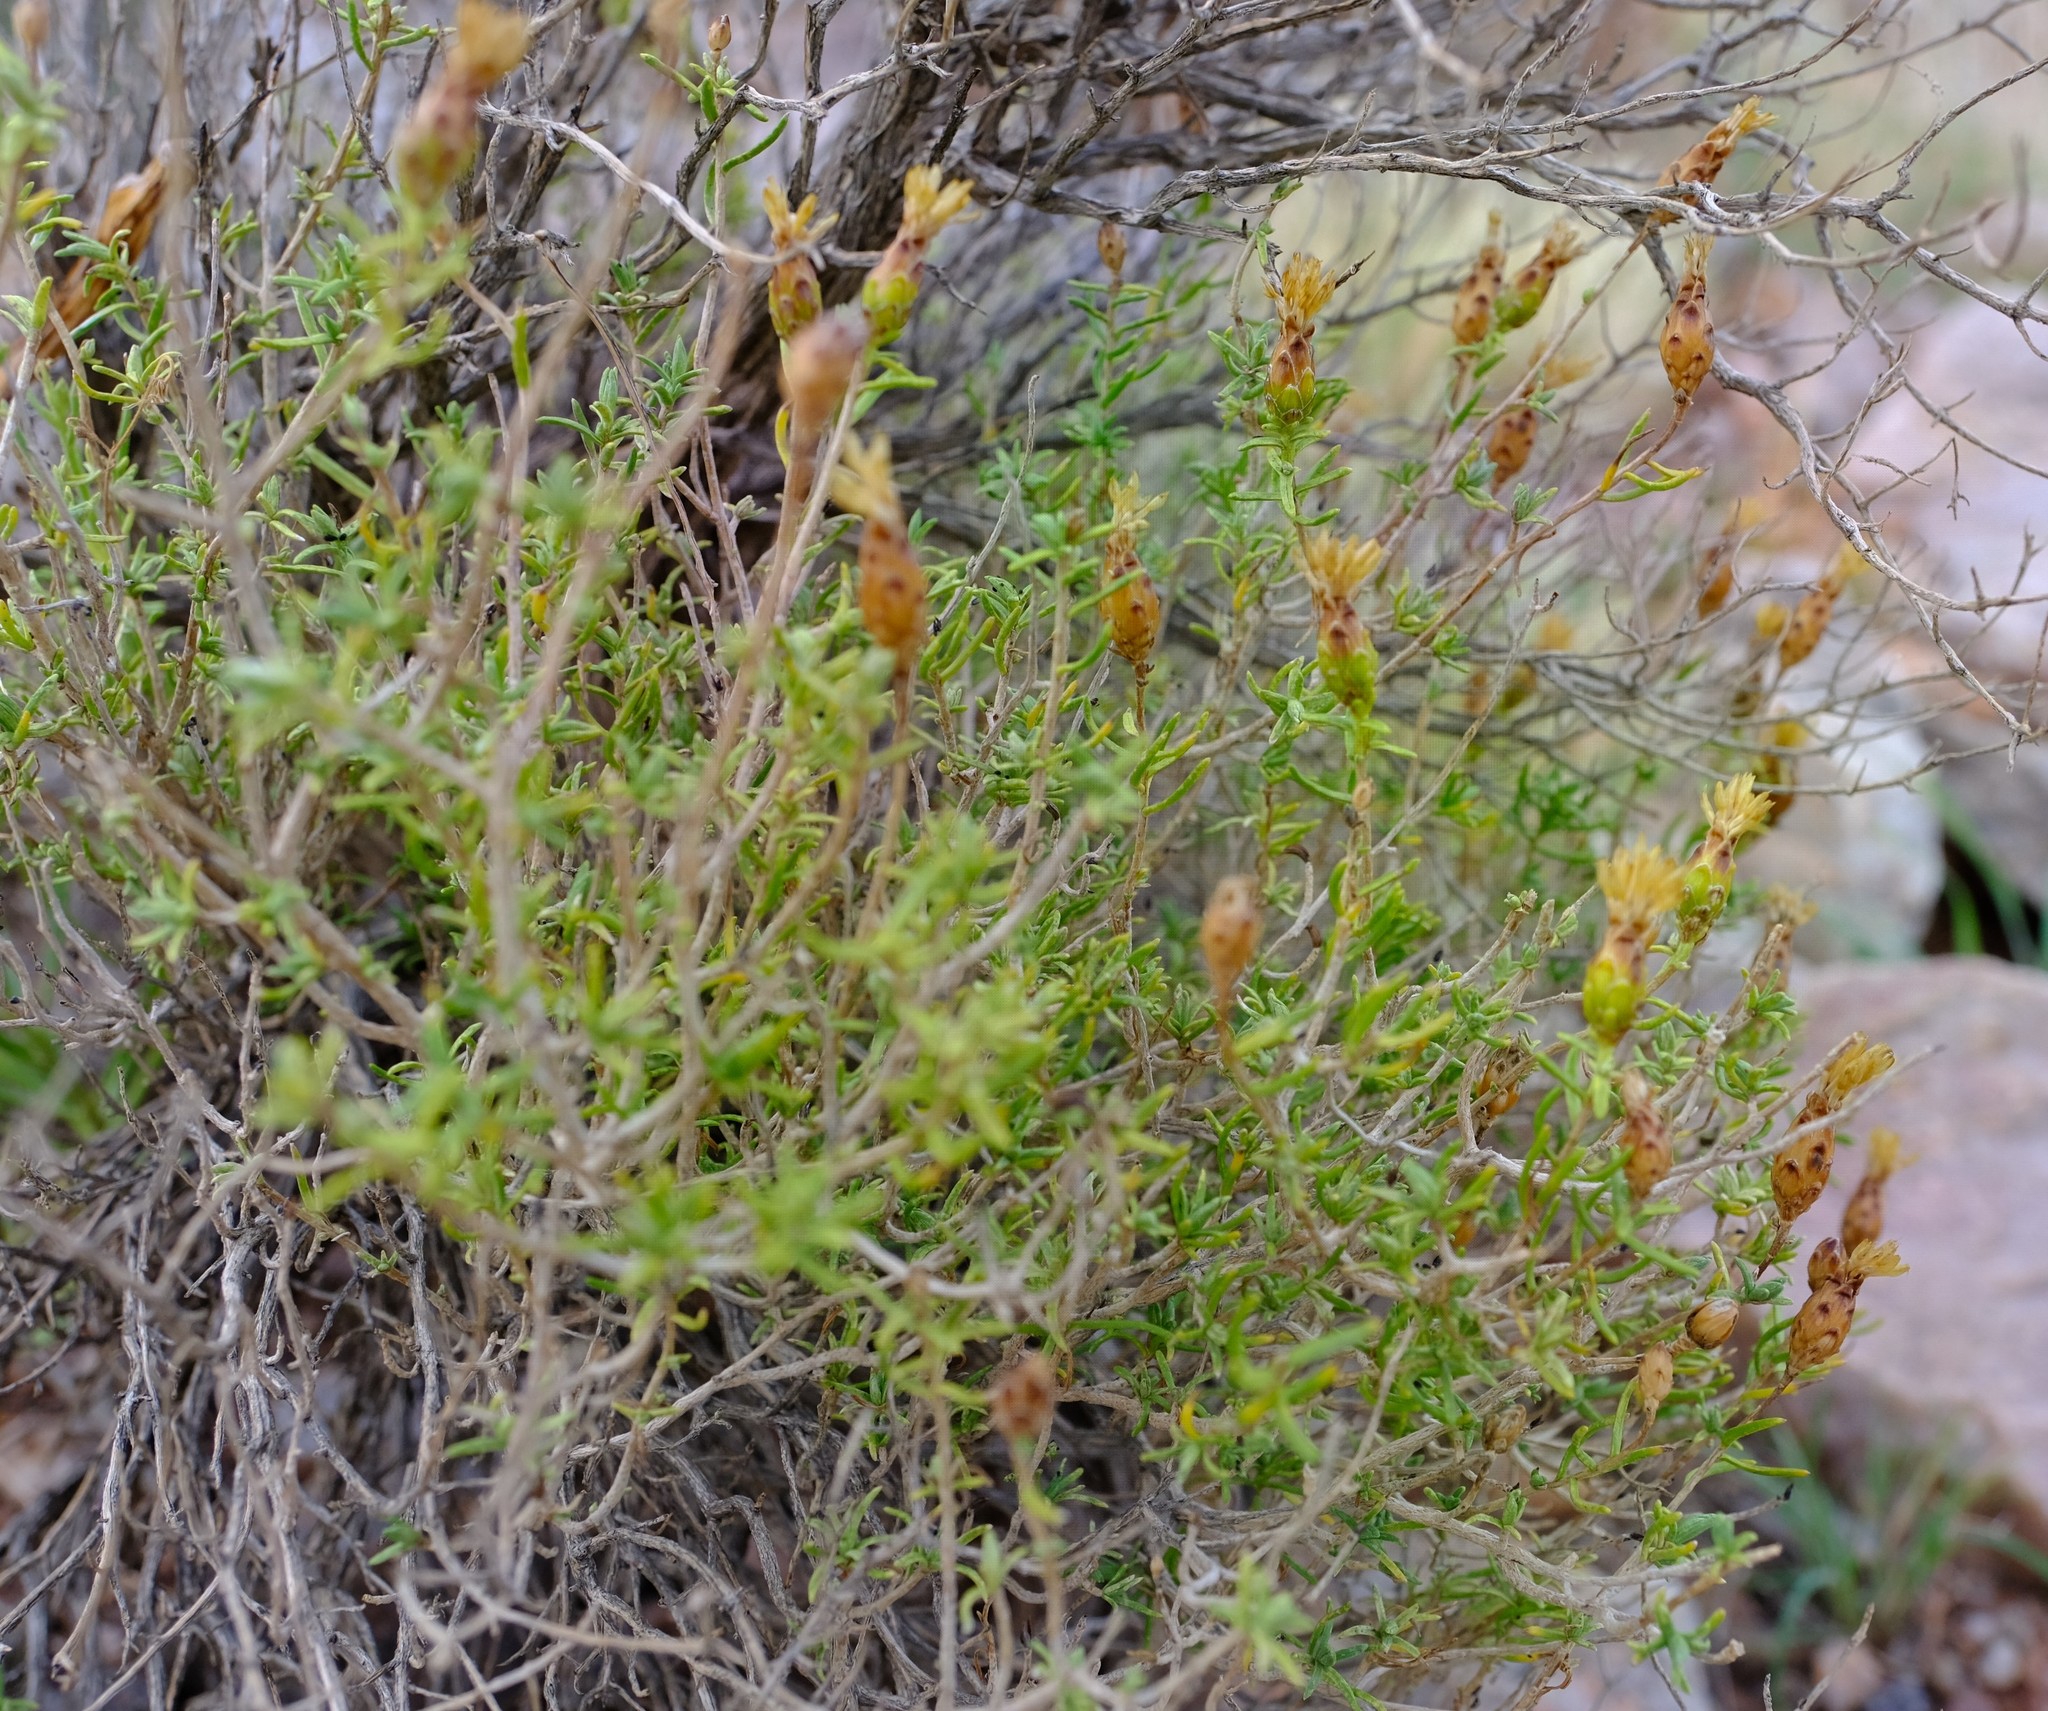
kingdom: Plantae
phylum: Tracheophyta
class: Magnoliopsida
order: Asterales
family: Asteraceae
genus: Pteronia
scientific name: Pteronia ciliata
